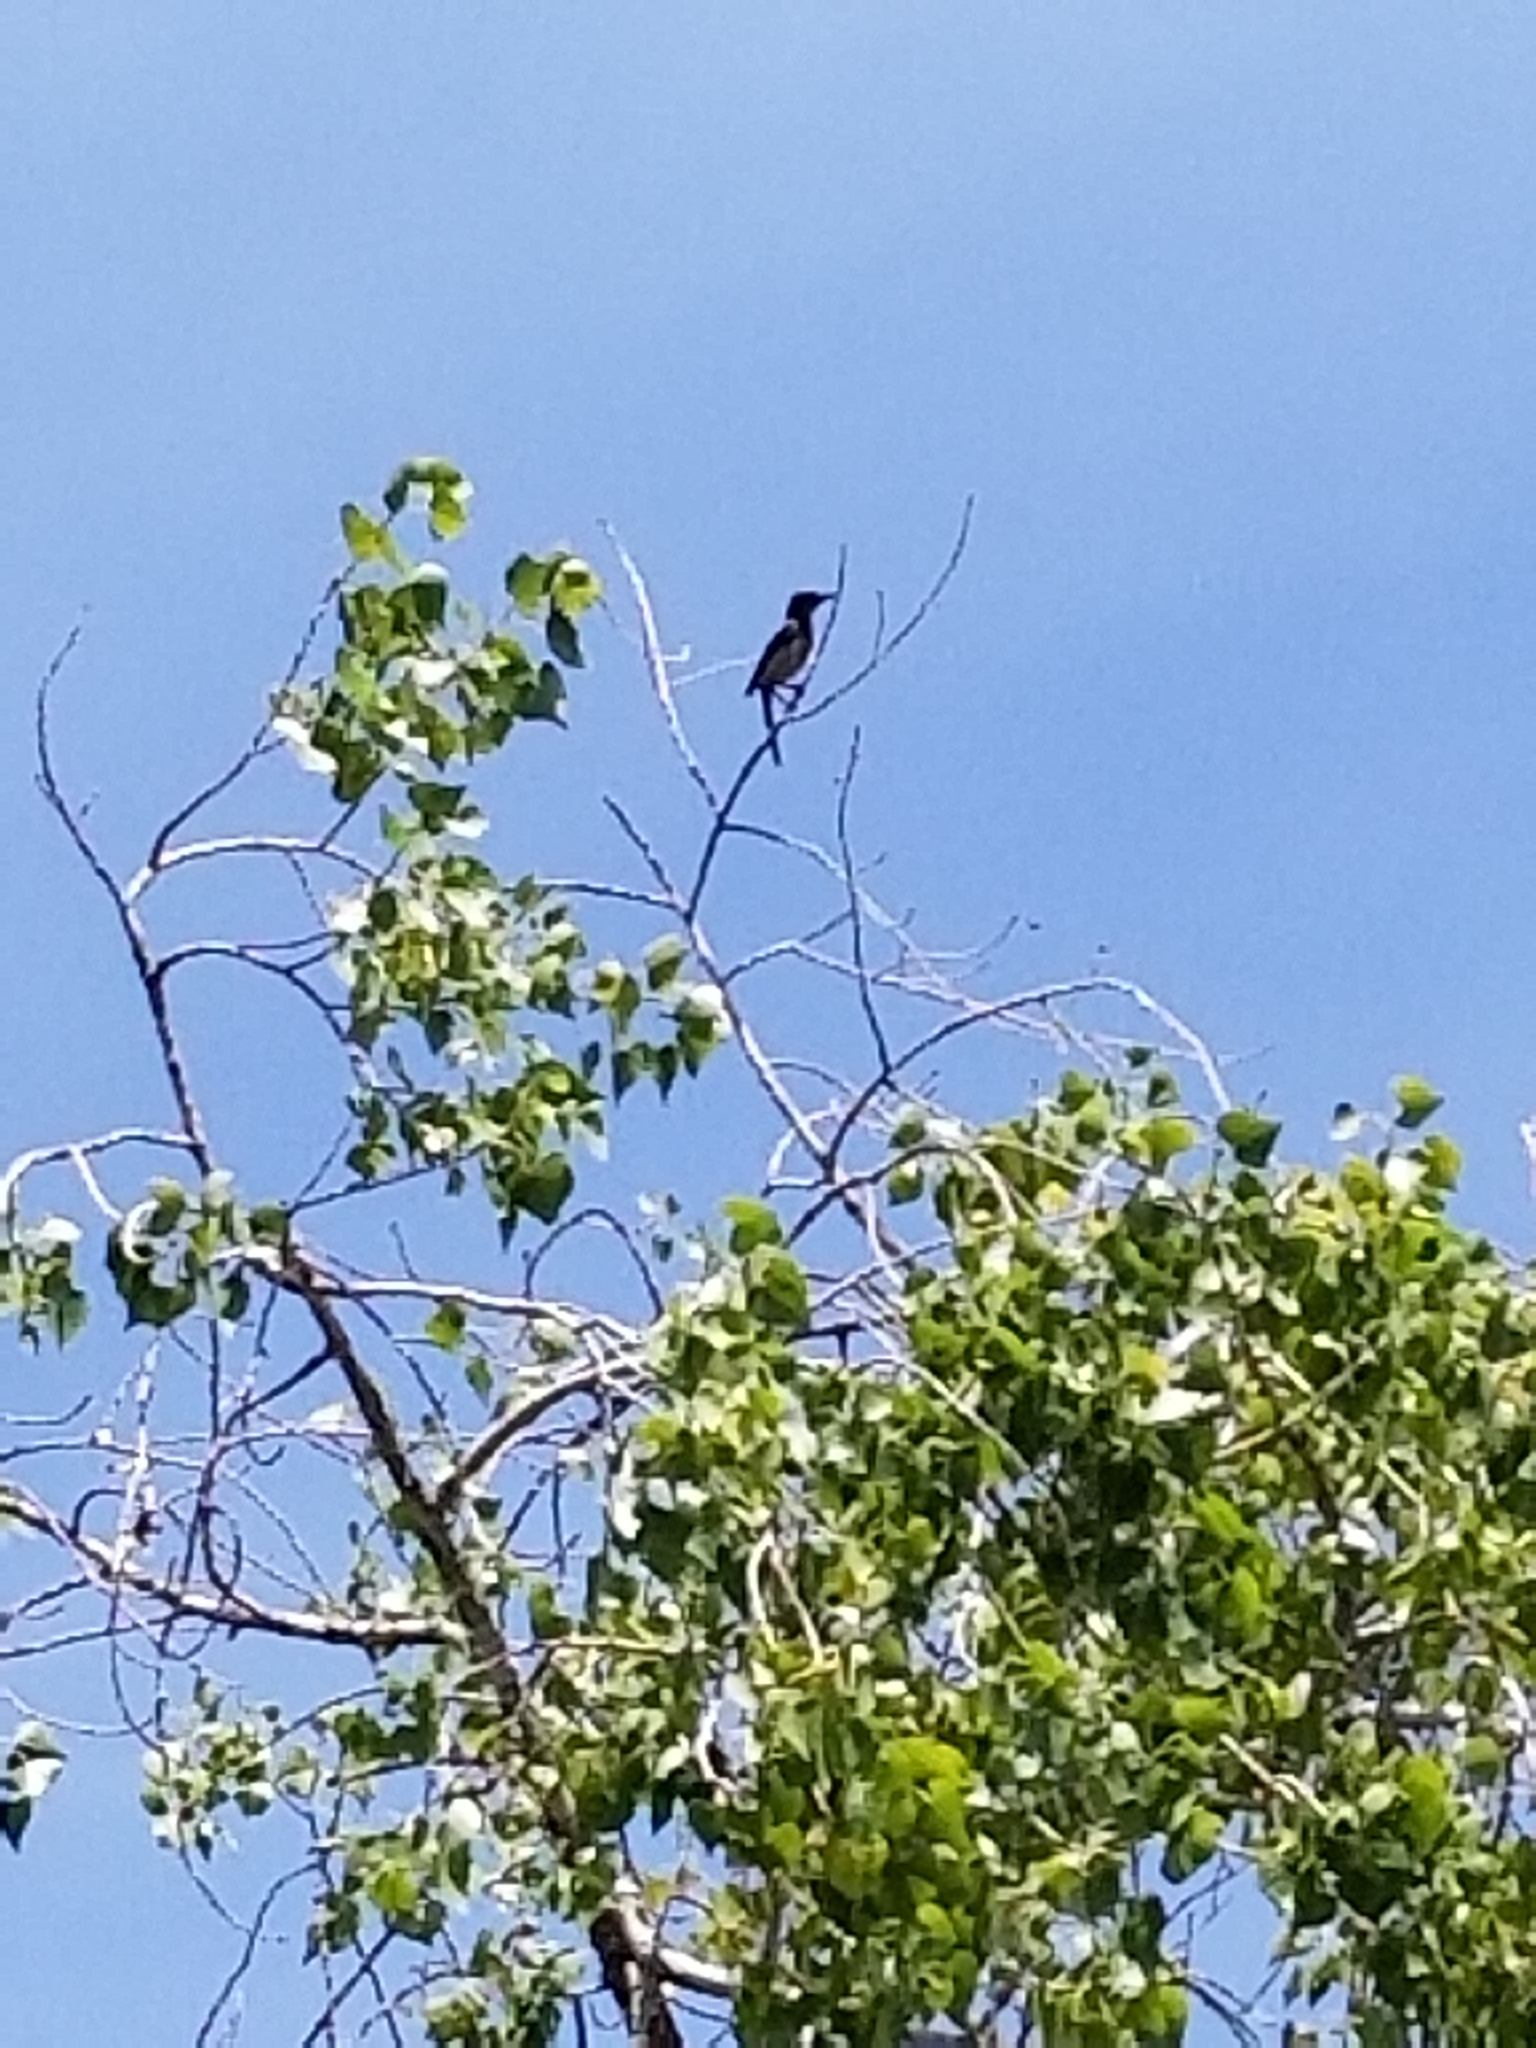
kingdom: Animalia
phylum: Chordata
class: Aves
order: Passeriformes
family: Corvidae
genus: Aphelocoma
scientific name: Aphelocoma californica
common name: California scrub-jay
